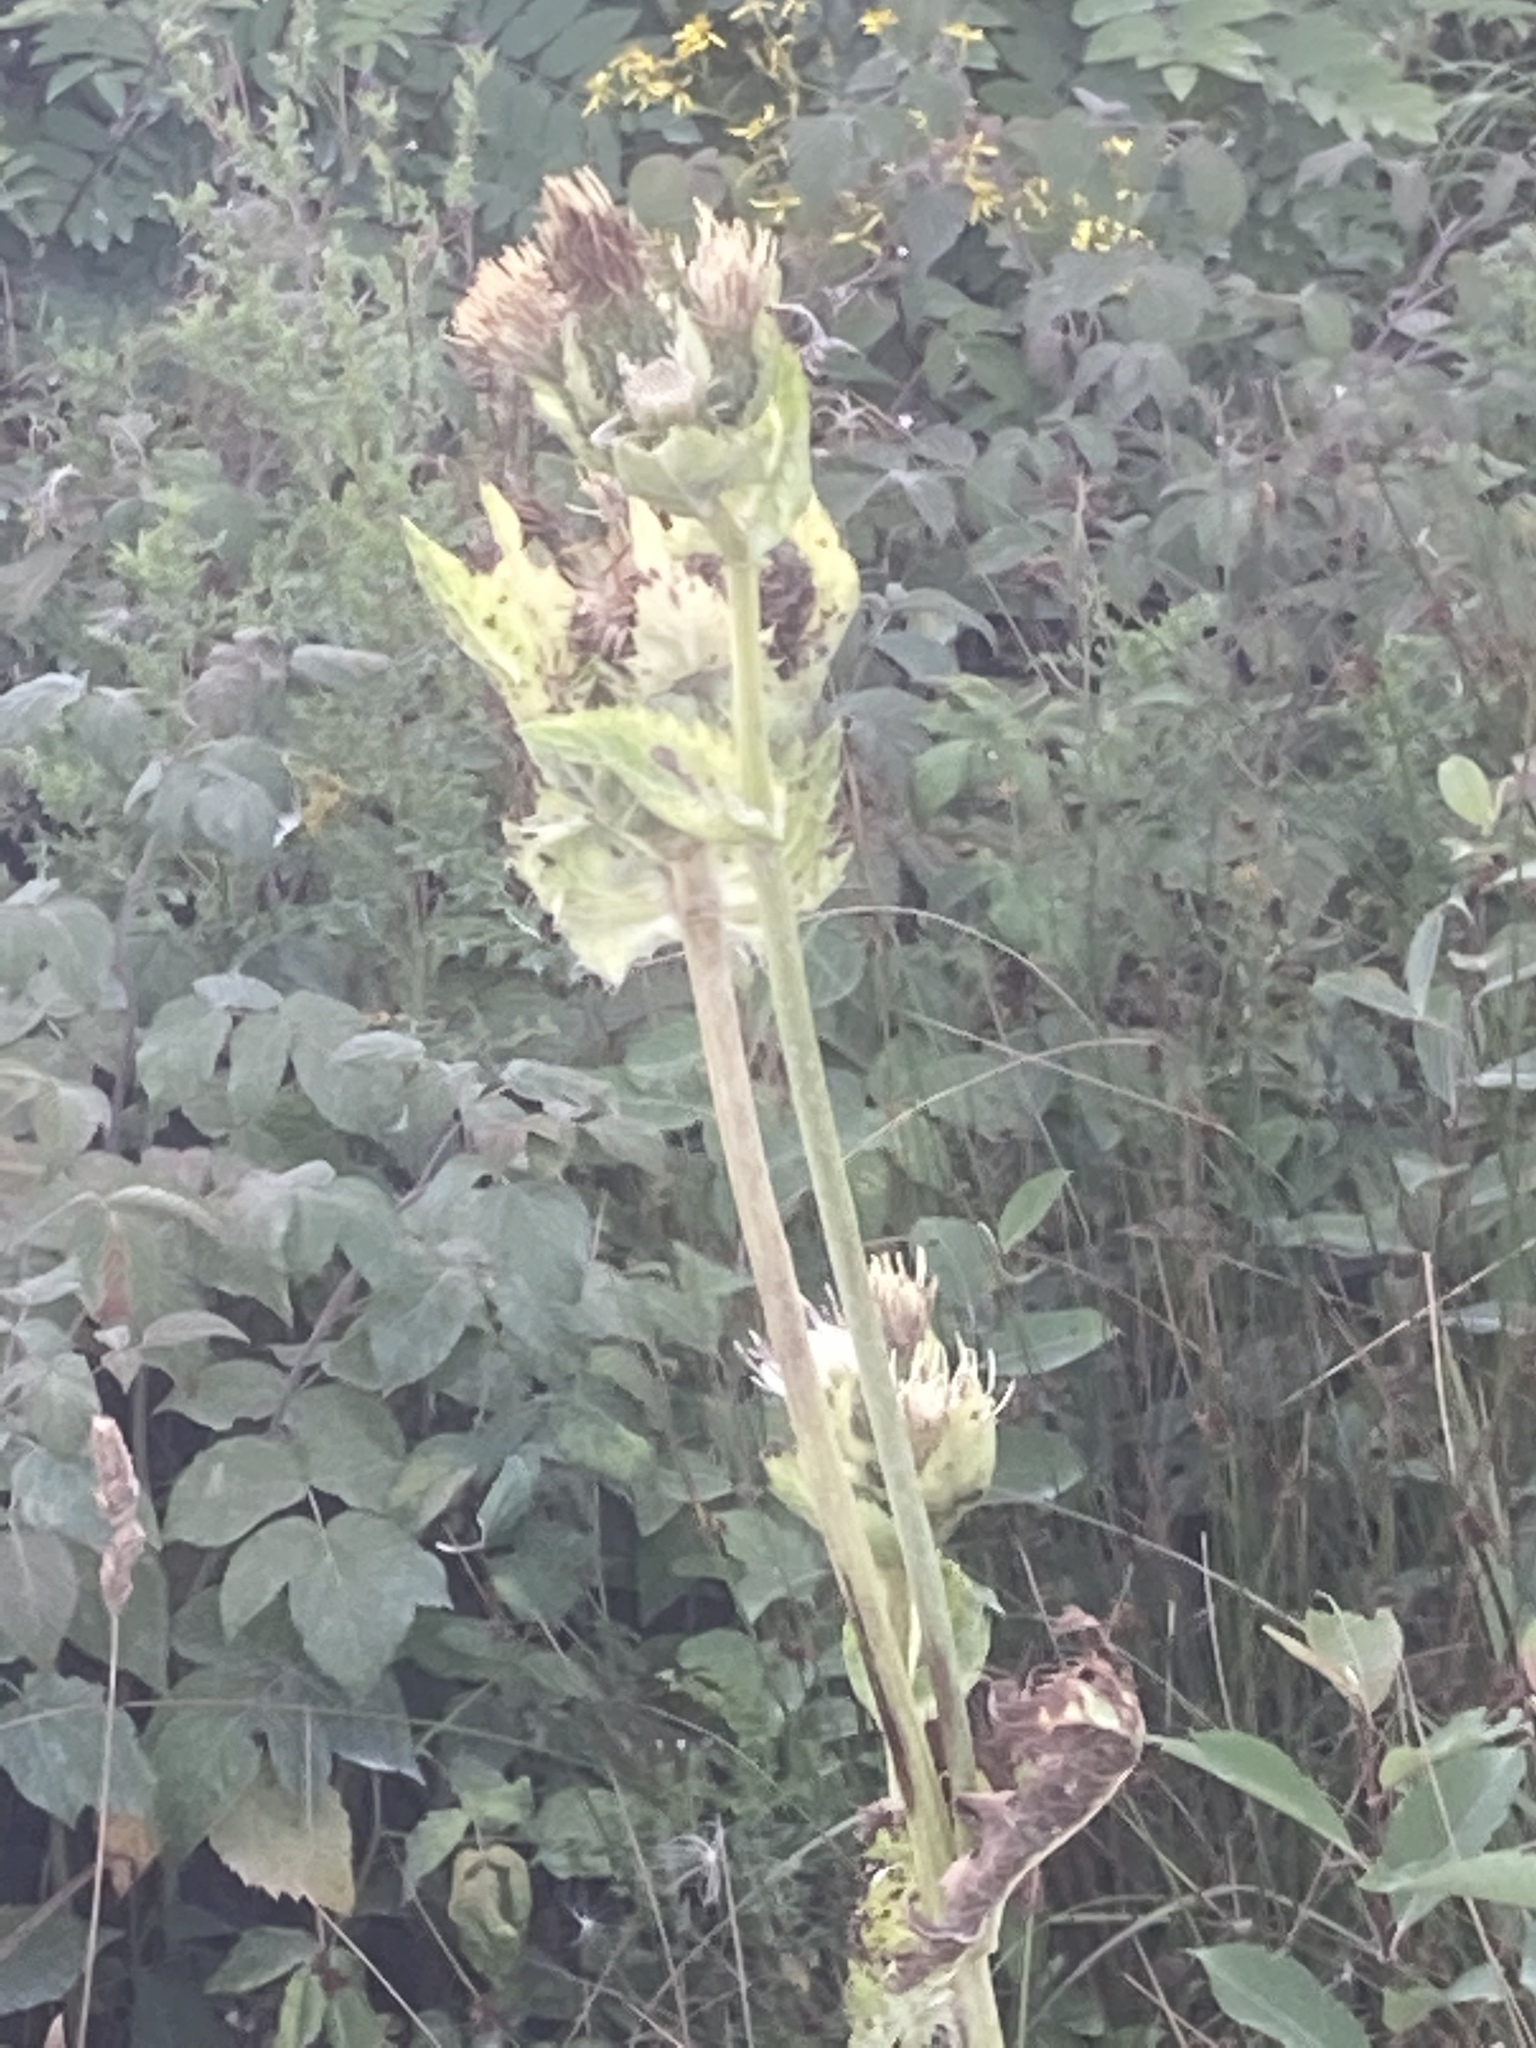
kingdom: Plantae
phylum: Tracheophyta
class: Magnoliopsida
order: Asterales
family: Asteraceae
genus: Cirsium
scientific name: Cirsium oleraceum
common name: Cabbage thistle
